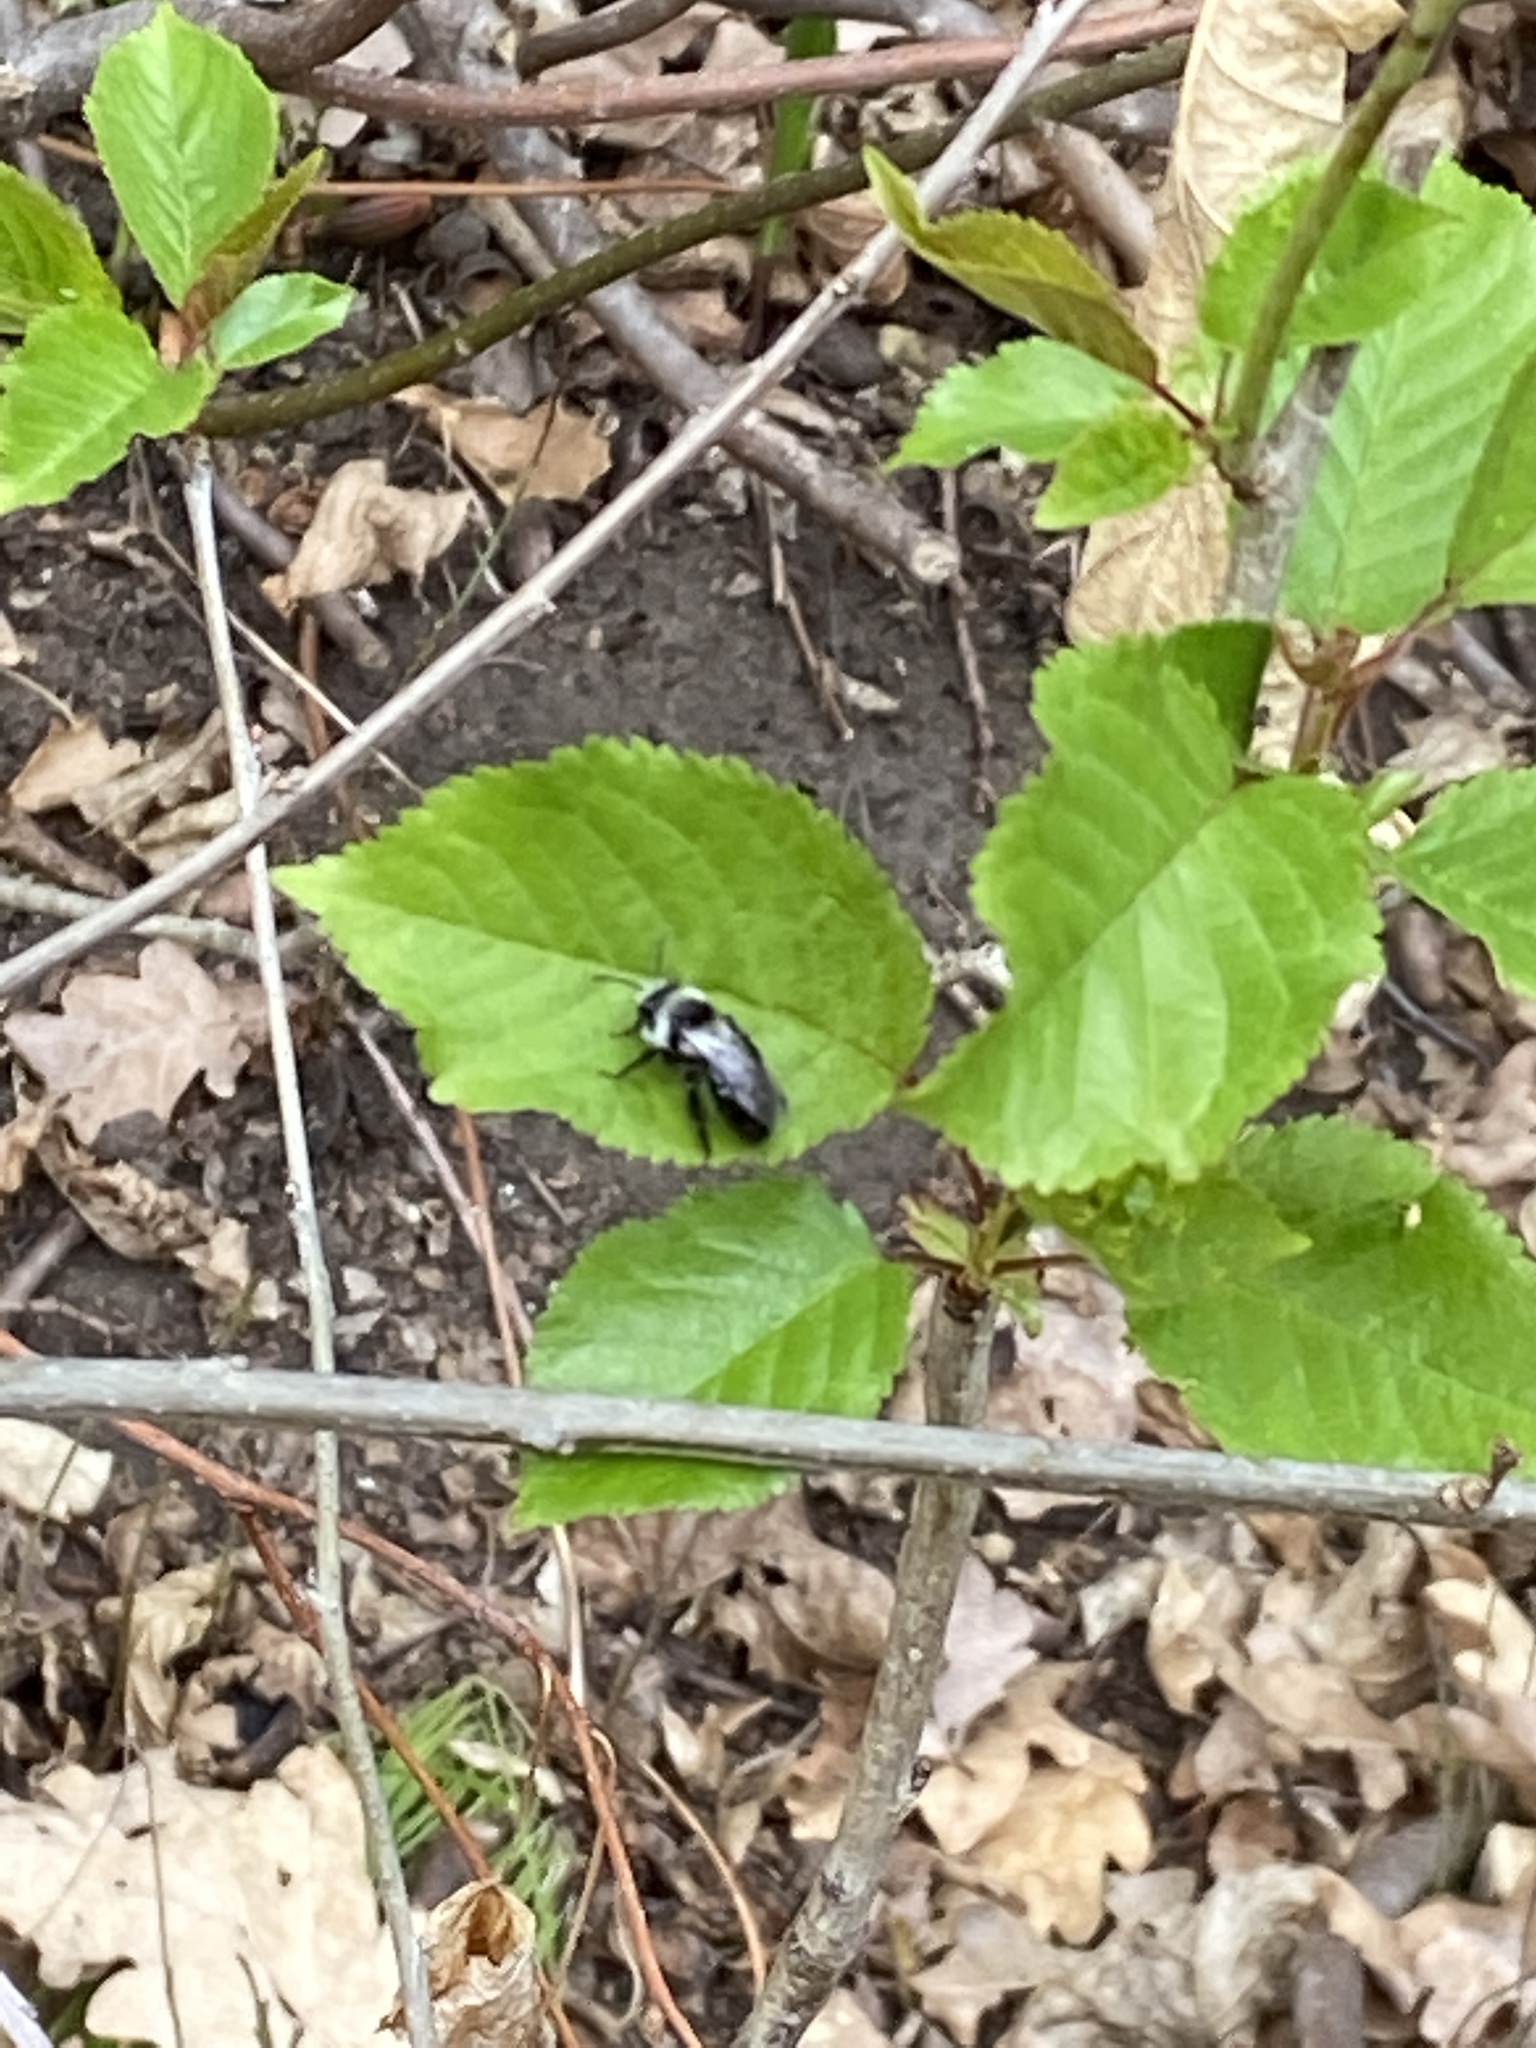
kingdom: Animalia
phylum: Arthropoda
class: Insecta
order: Hymenoptera
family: Andrenidae
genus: Andrena
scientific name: Andrena cineraria
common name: Ashy mining bee
